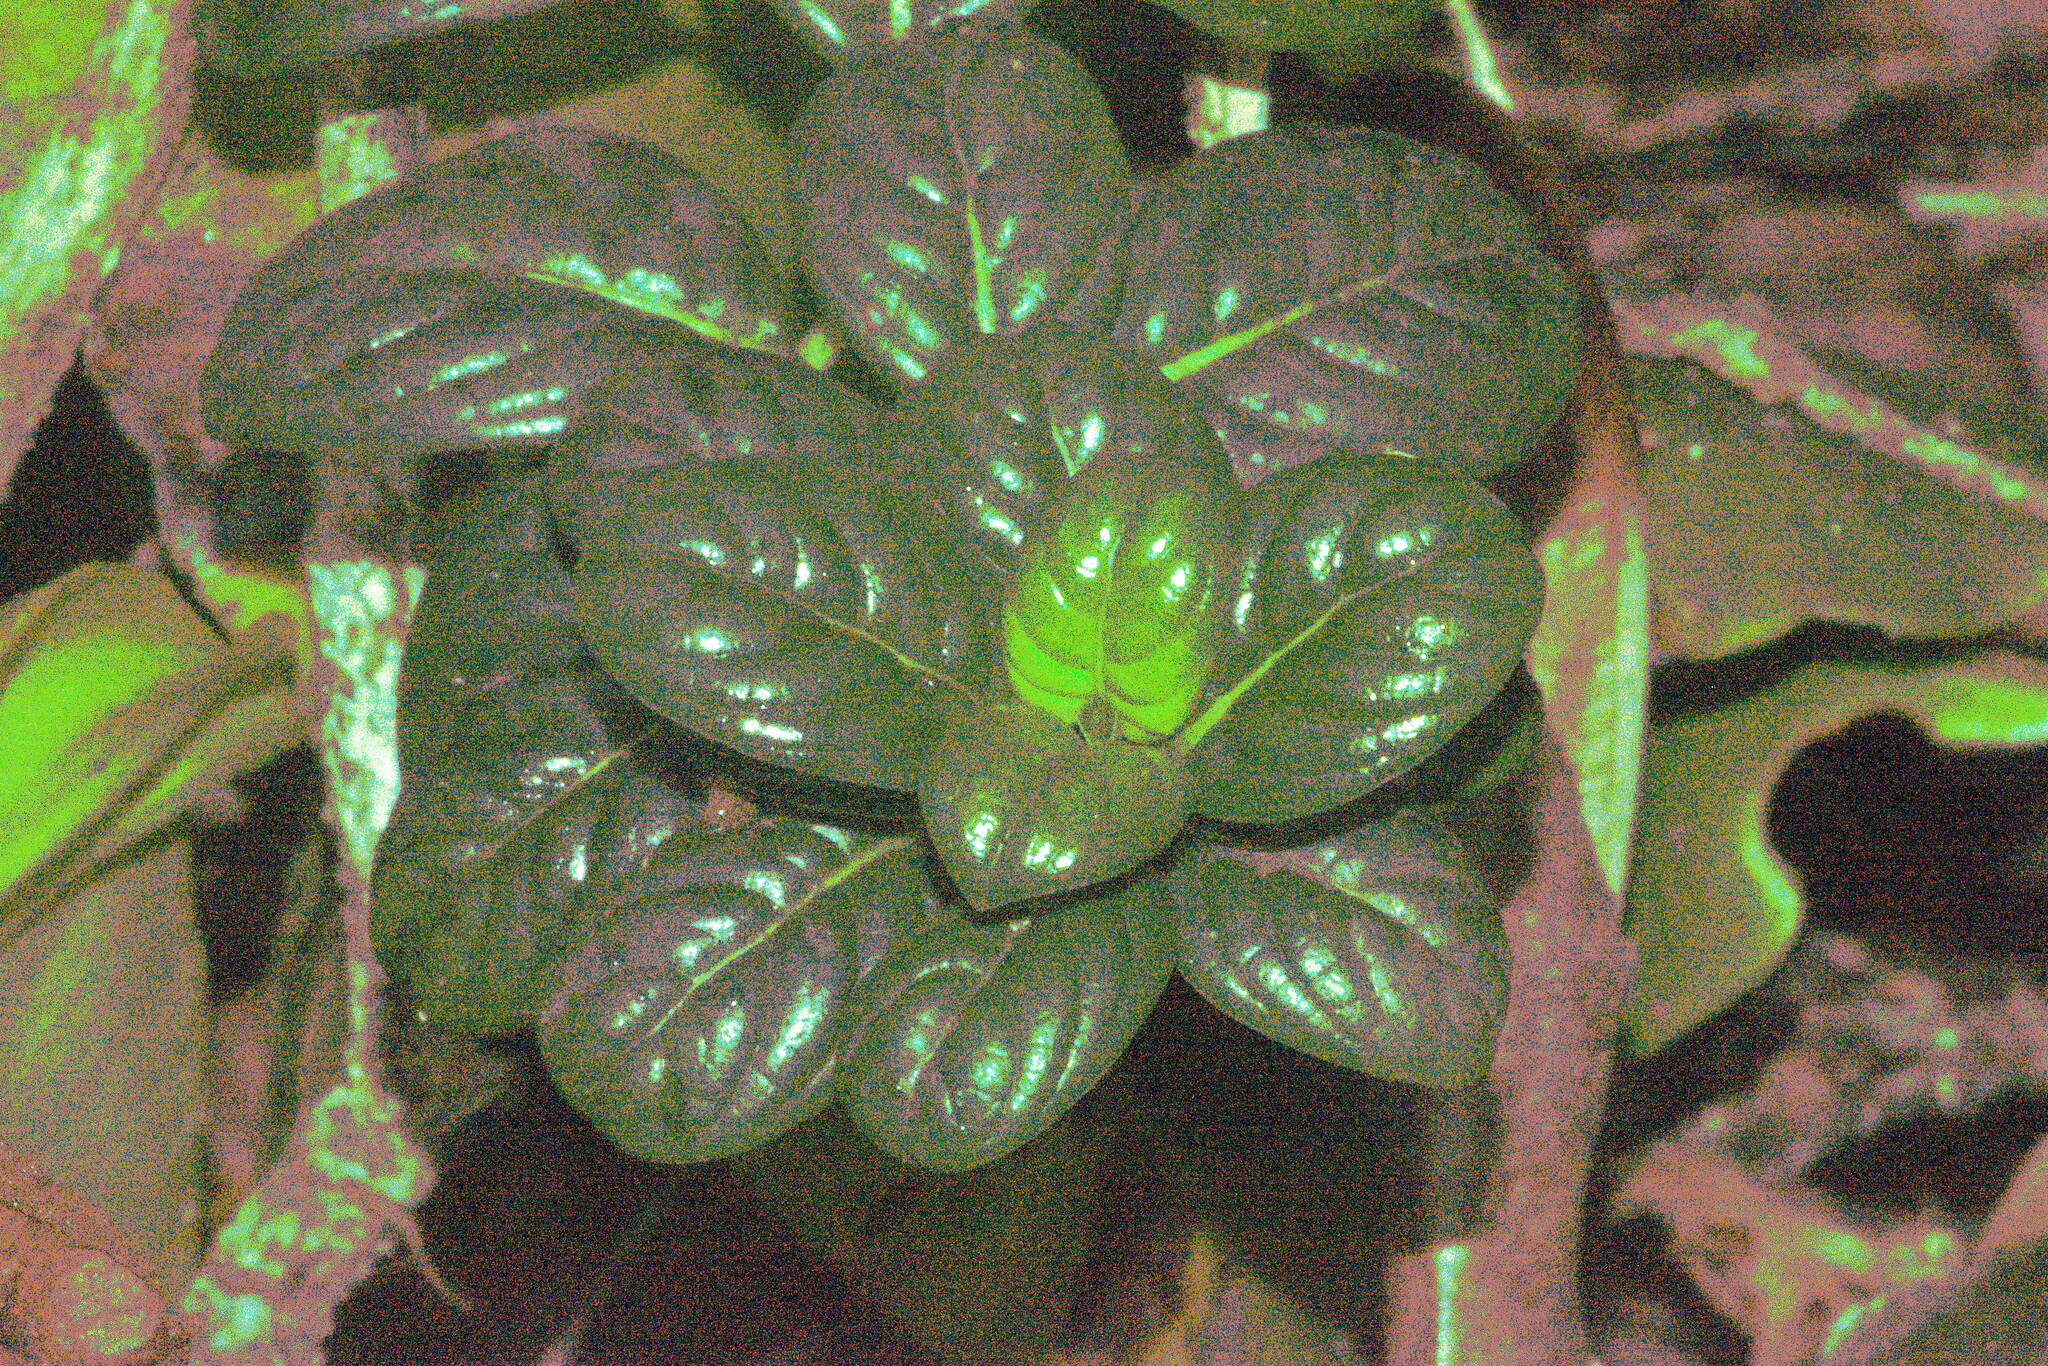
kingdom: Plantae
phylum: Tracheophyta
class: Magnoliopsida
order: Gentianales
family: Loganiaceae
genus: Geniostoma
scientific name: Geniostoma waialealae
